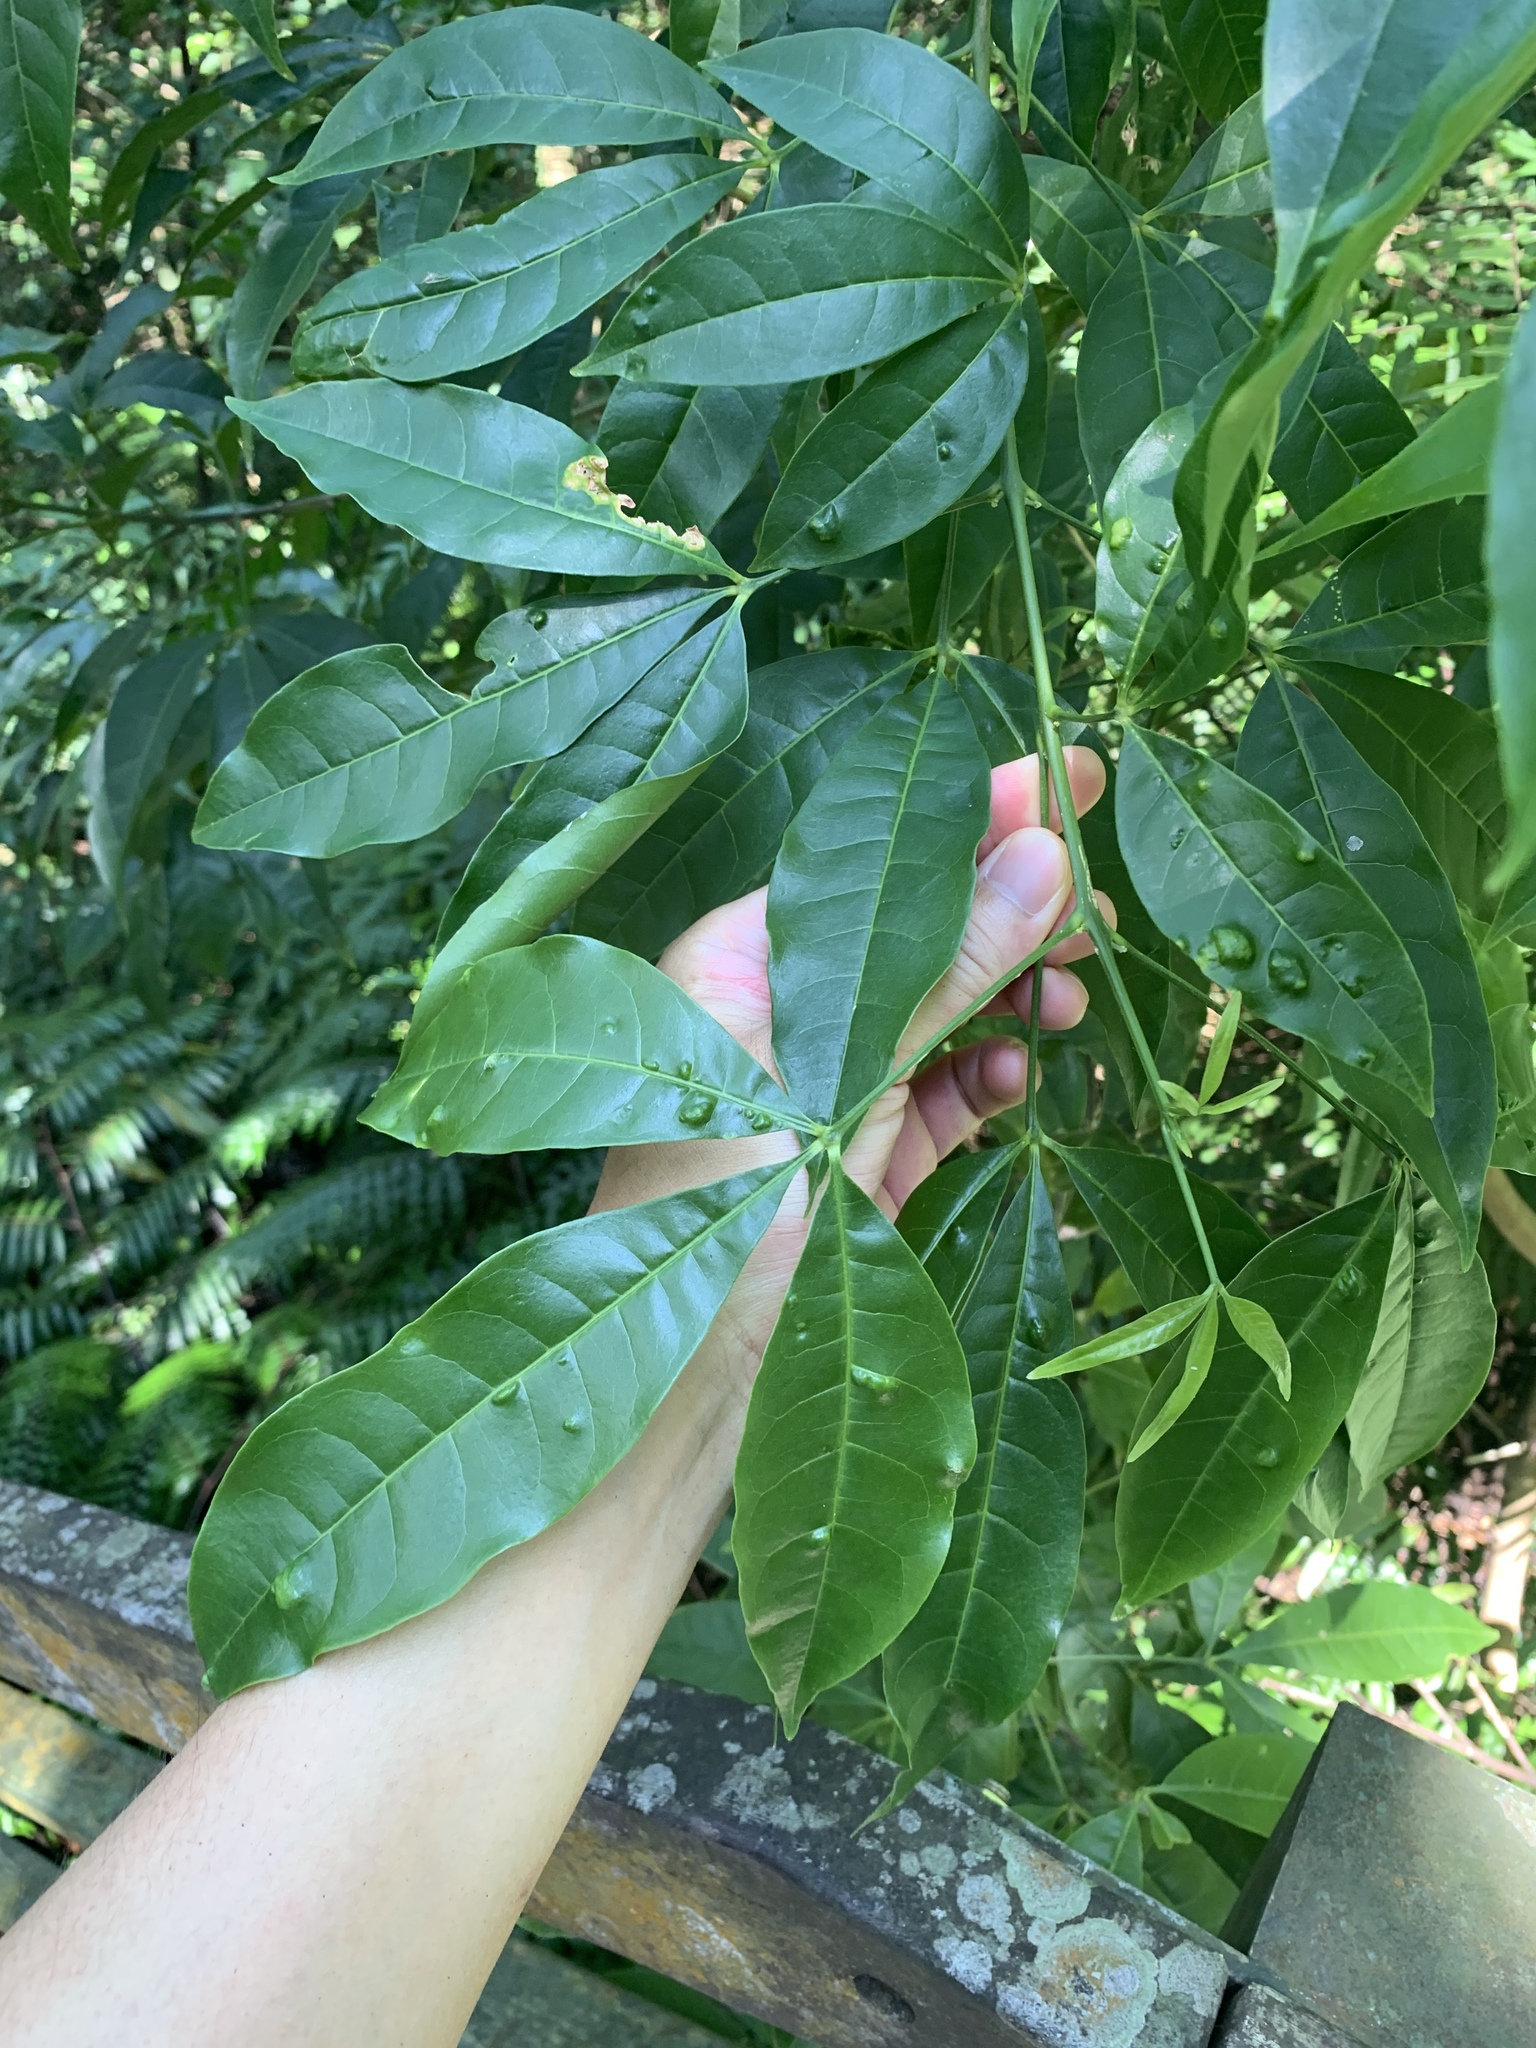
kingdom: Plantae
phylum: Tracheophyta
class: Magnoliopsida
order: Sapindales
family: Rutaceae
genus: Melicope
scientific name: Melicope pteleifolia
